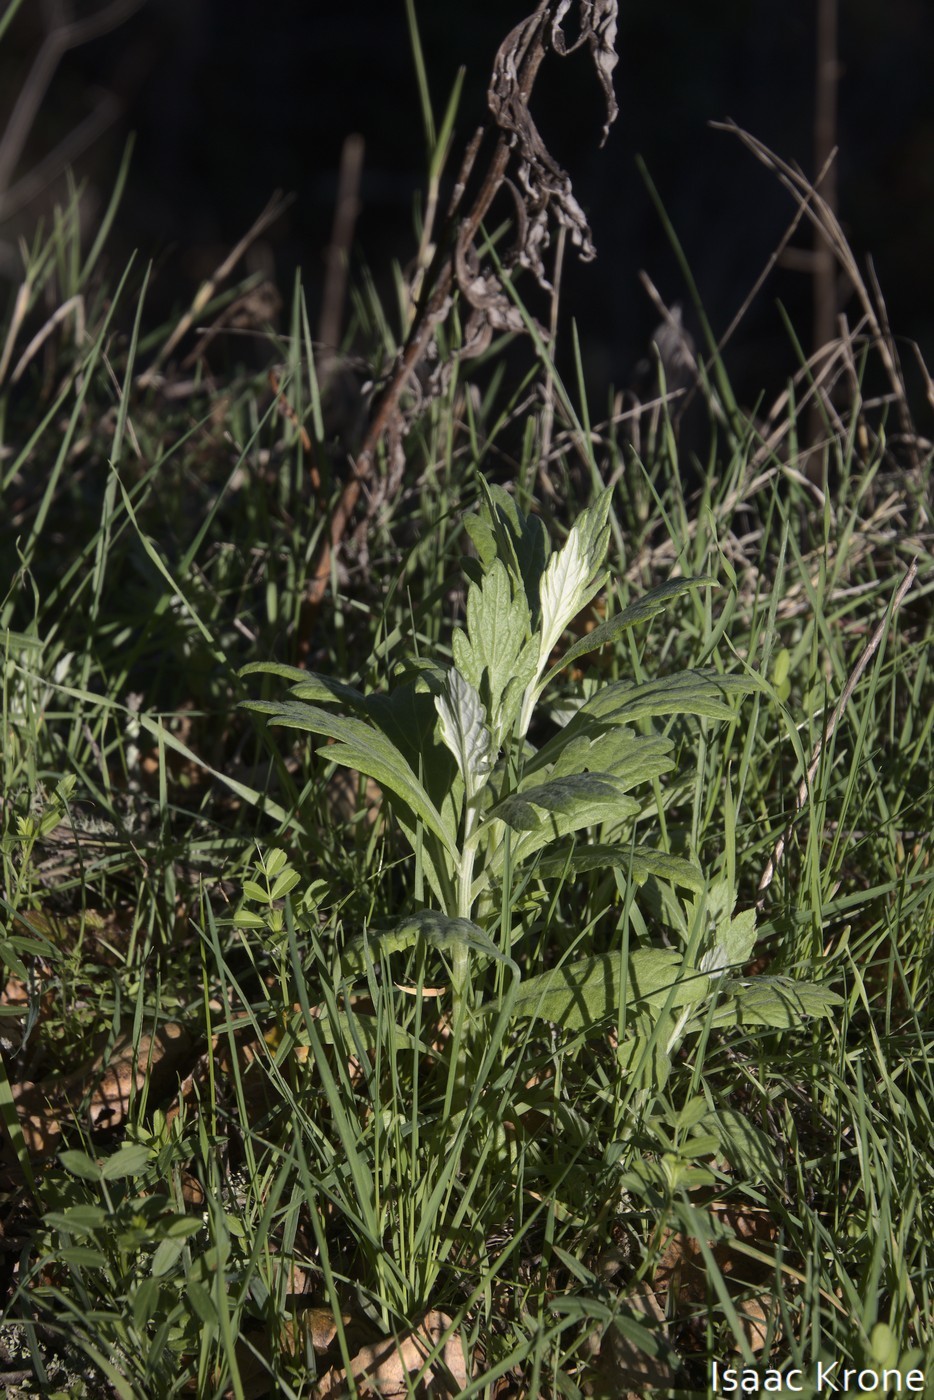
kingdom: Plantae
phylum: Tracheophyta
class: Magnoliopsida
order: Asterales
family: Asteraceae
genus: Artemisia
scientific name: Artemisia douglasiana
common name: Northwest mugwort
